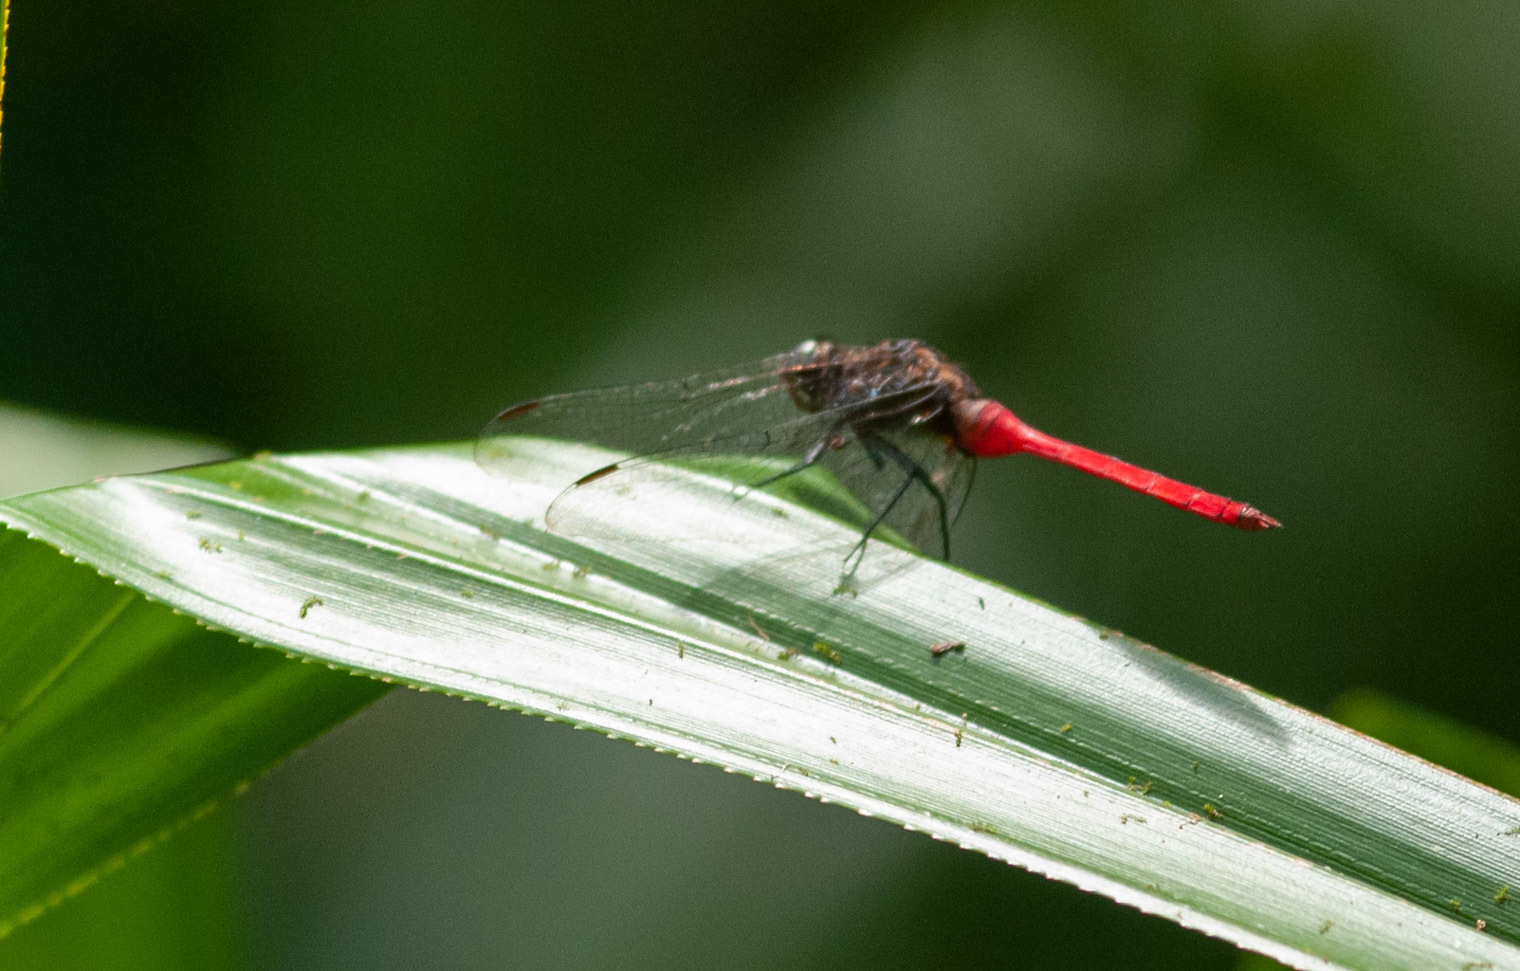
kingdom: Animalia
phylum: Arthropoda
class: Insecta
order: Odonata
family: Libellulidae
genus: Orthetrum
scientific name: Orthetrum villosovittatum
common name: Firery skimmer
